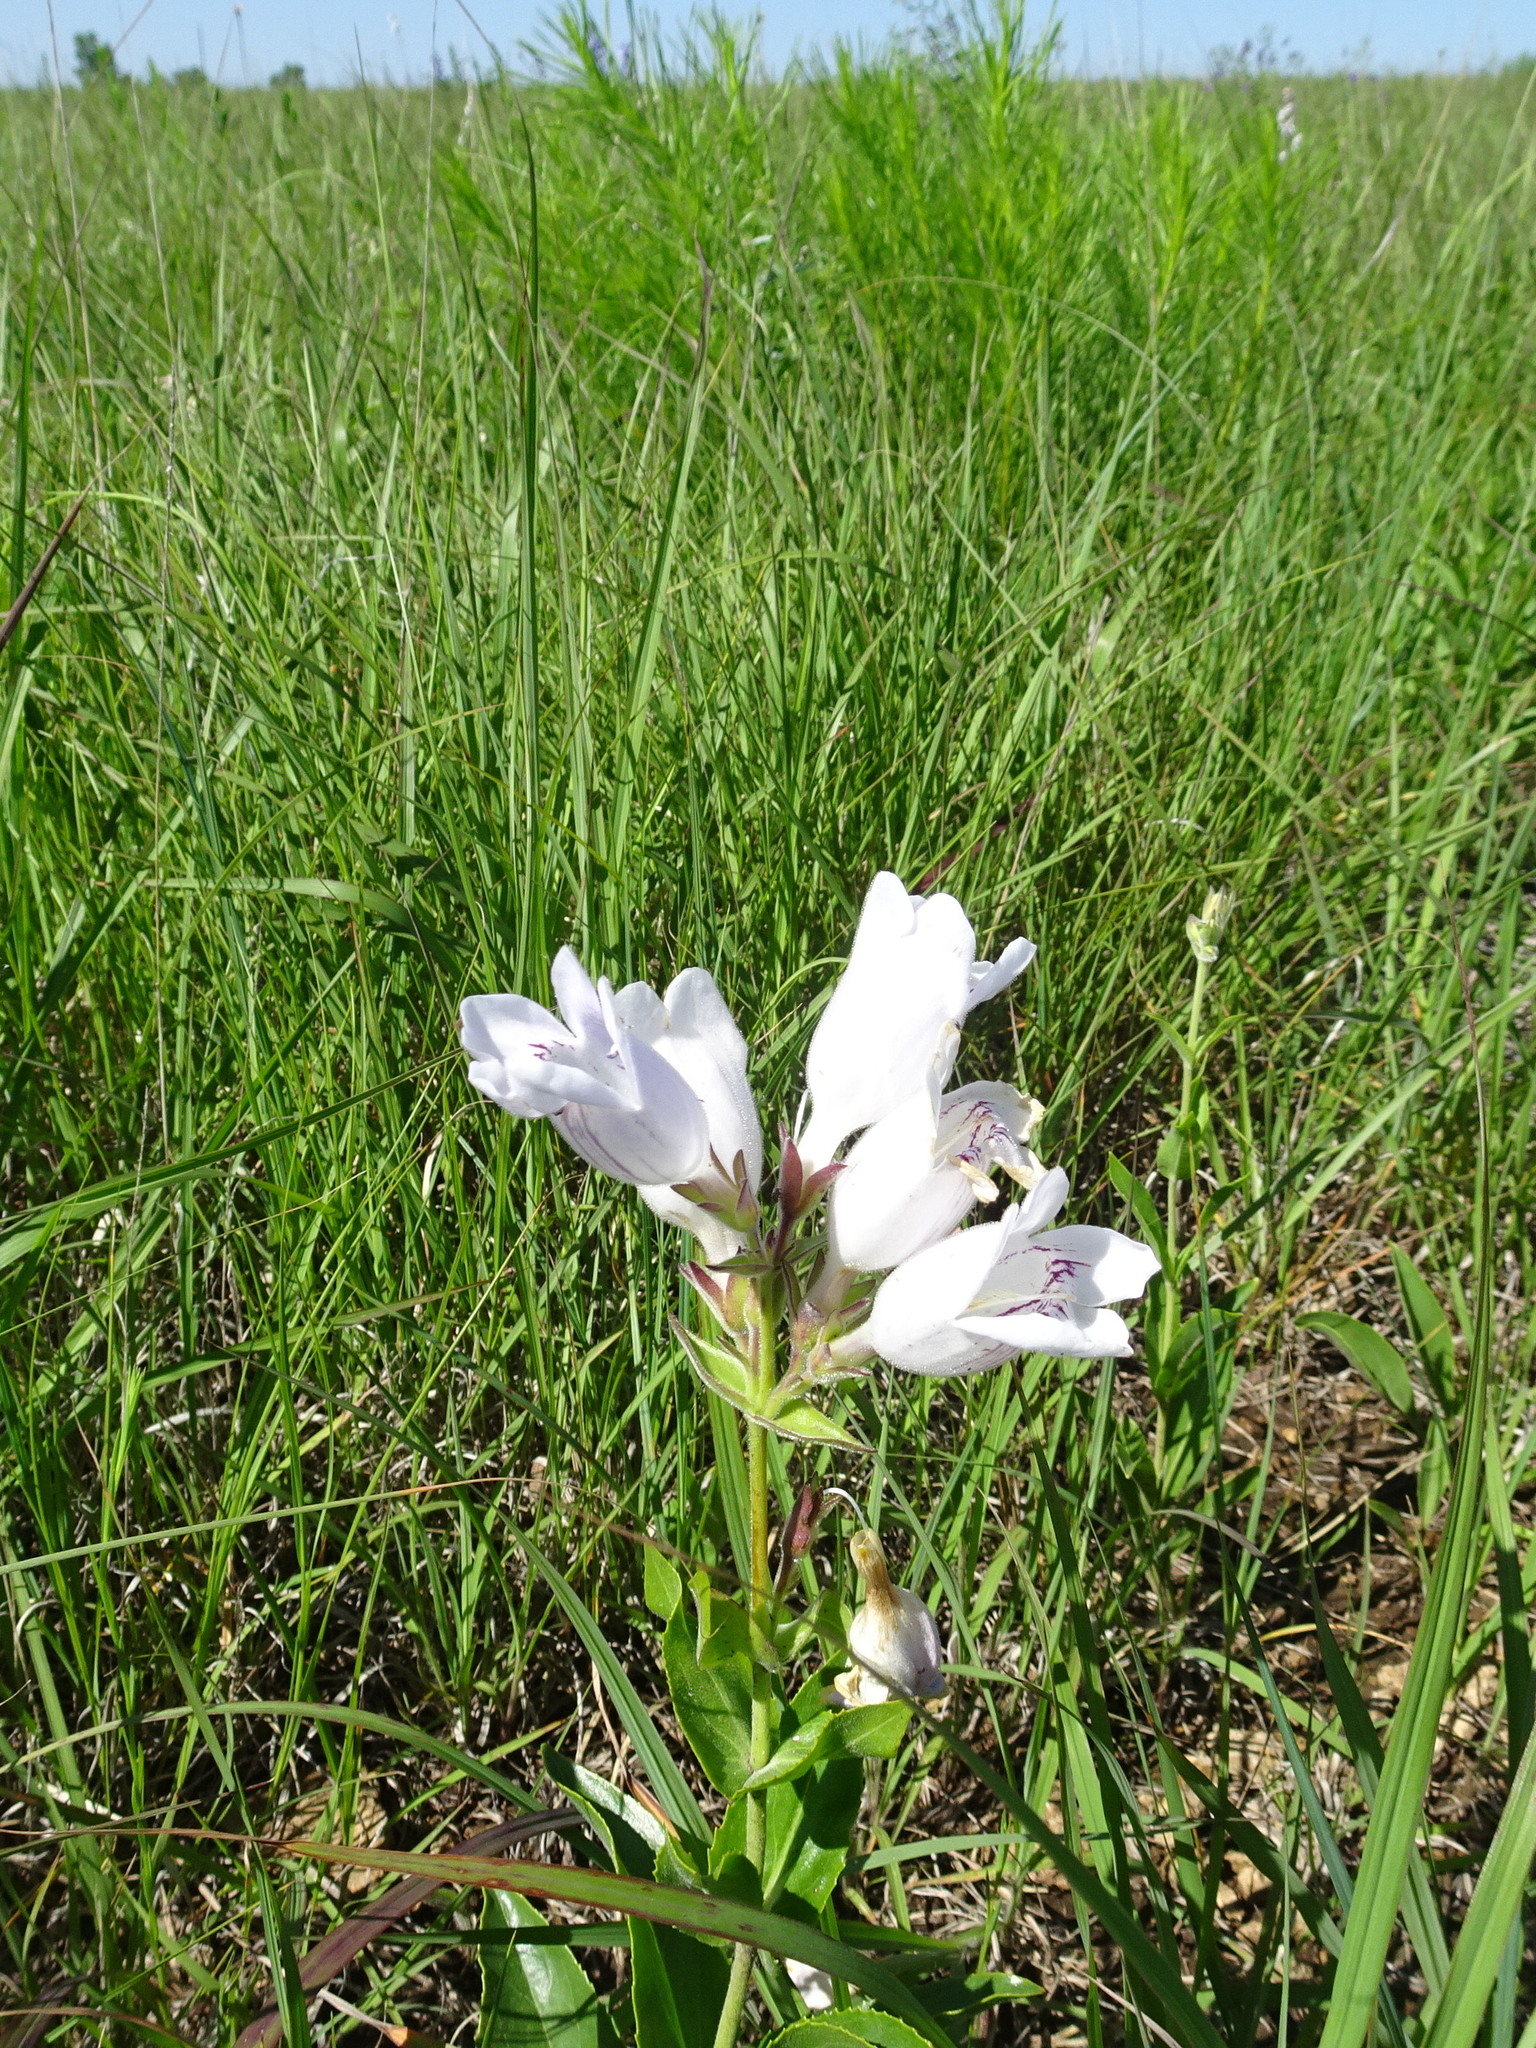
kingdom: Plantae
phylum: Tracheophyta
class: Magnoliopsida
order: Lamiales
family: Plantaginaceae
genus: Penstemon
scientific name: Penstemon cobaea
